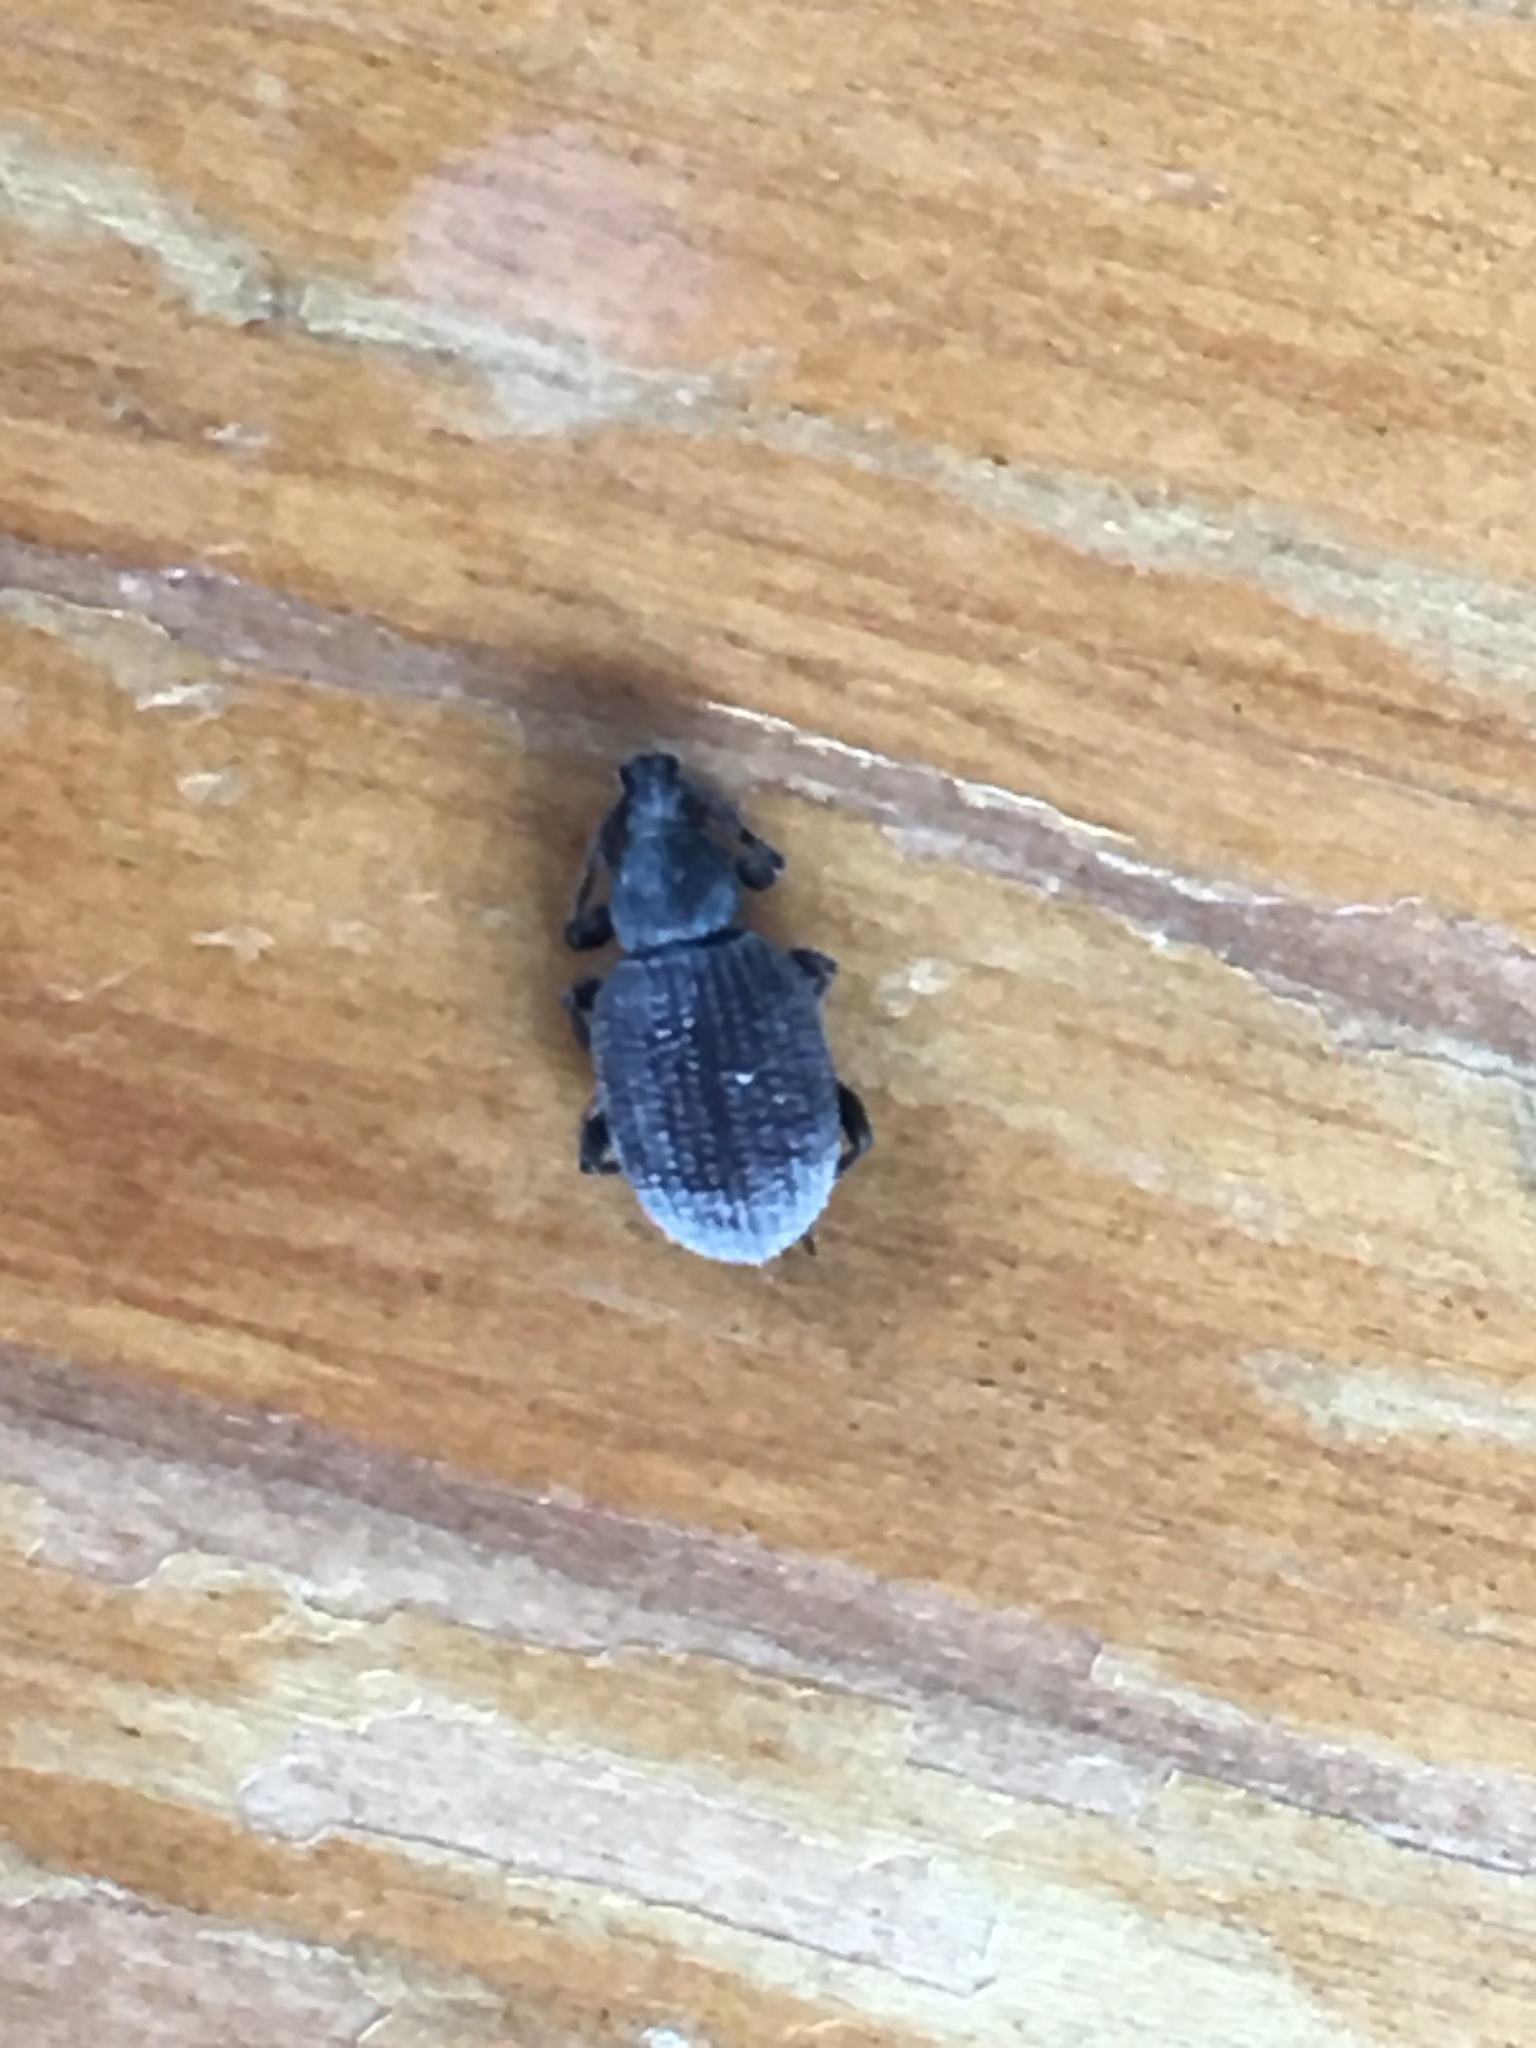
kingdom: Animalia
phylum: Arthropoda
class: Insecta
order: Coleoptera
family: Curculionidae
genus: Otiorhynchus
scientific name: Otiorhynchus rugosostriatus
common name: Weevil
